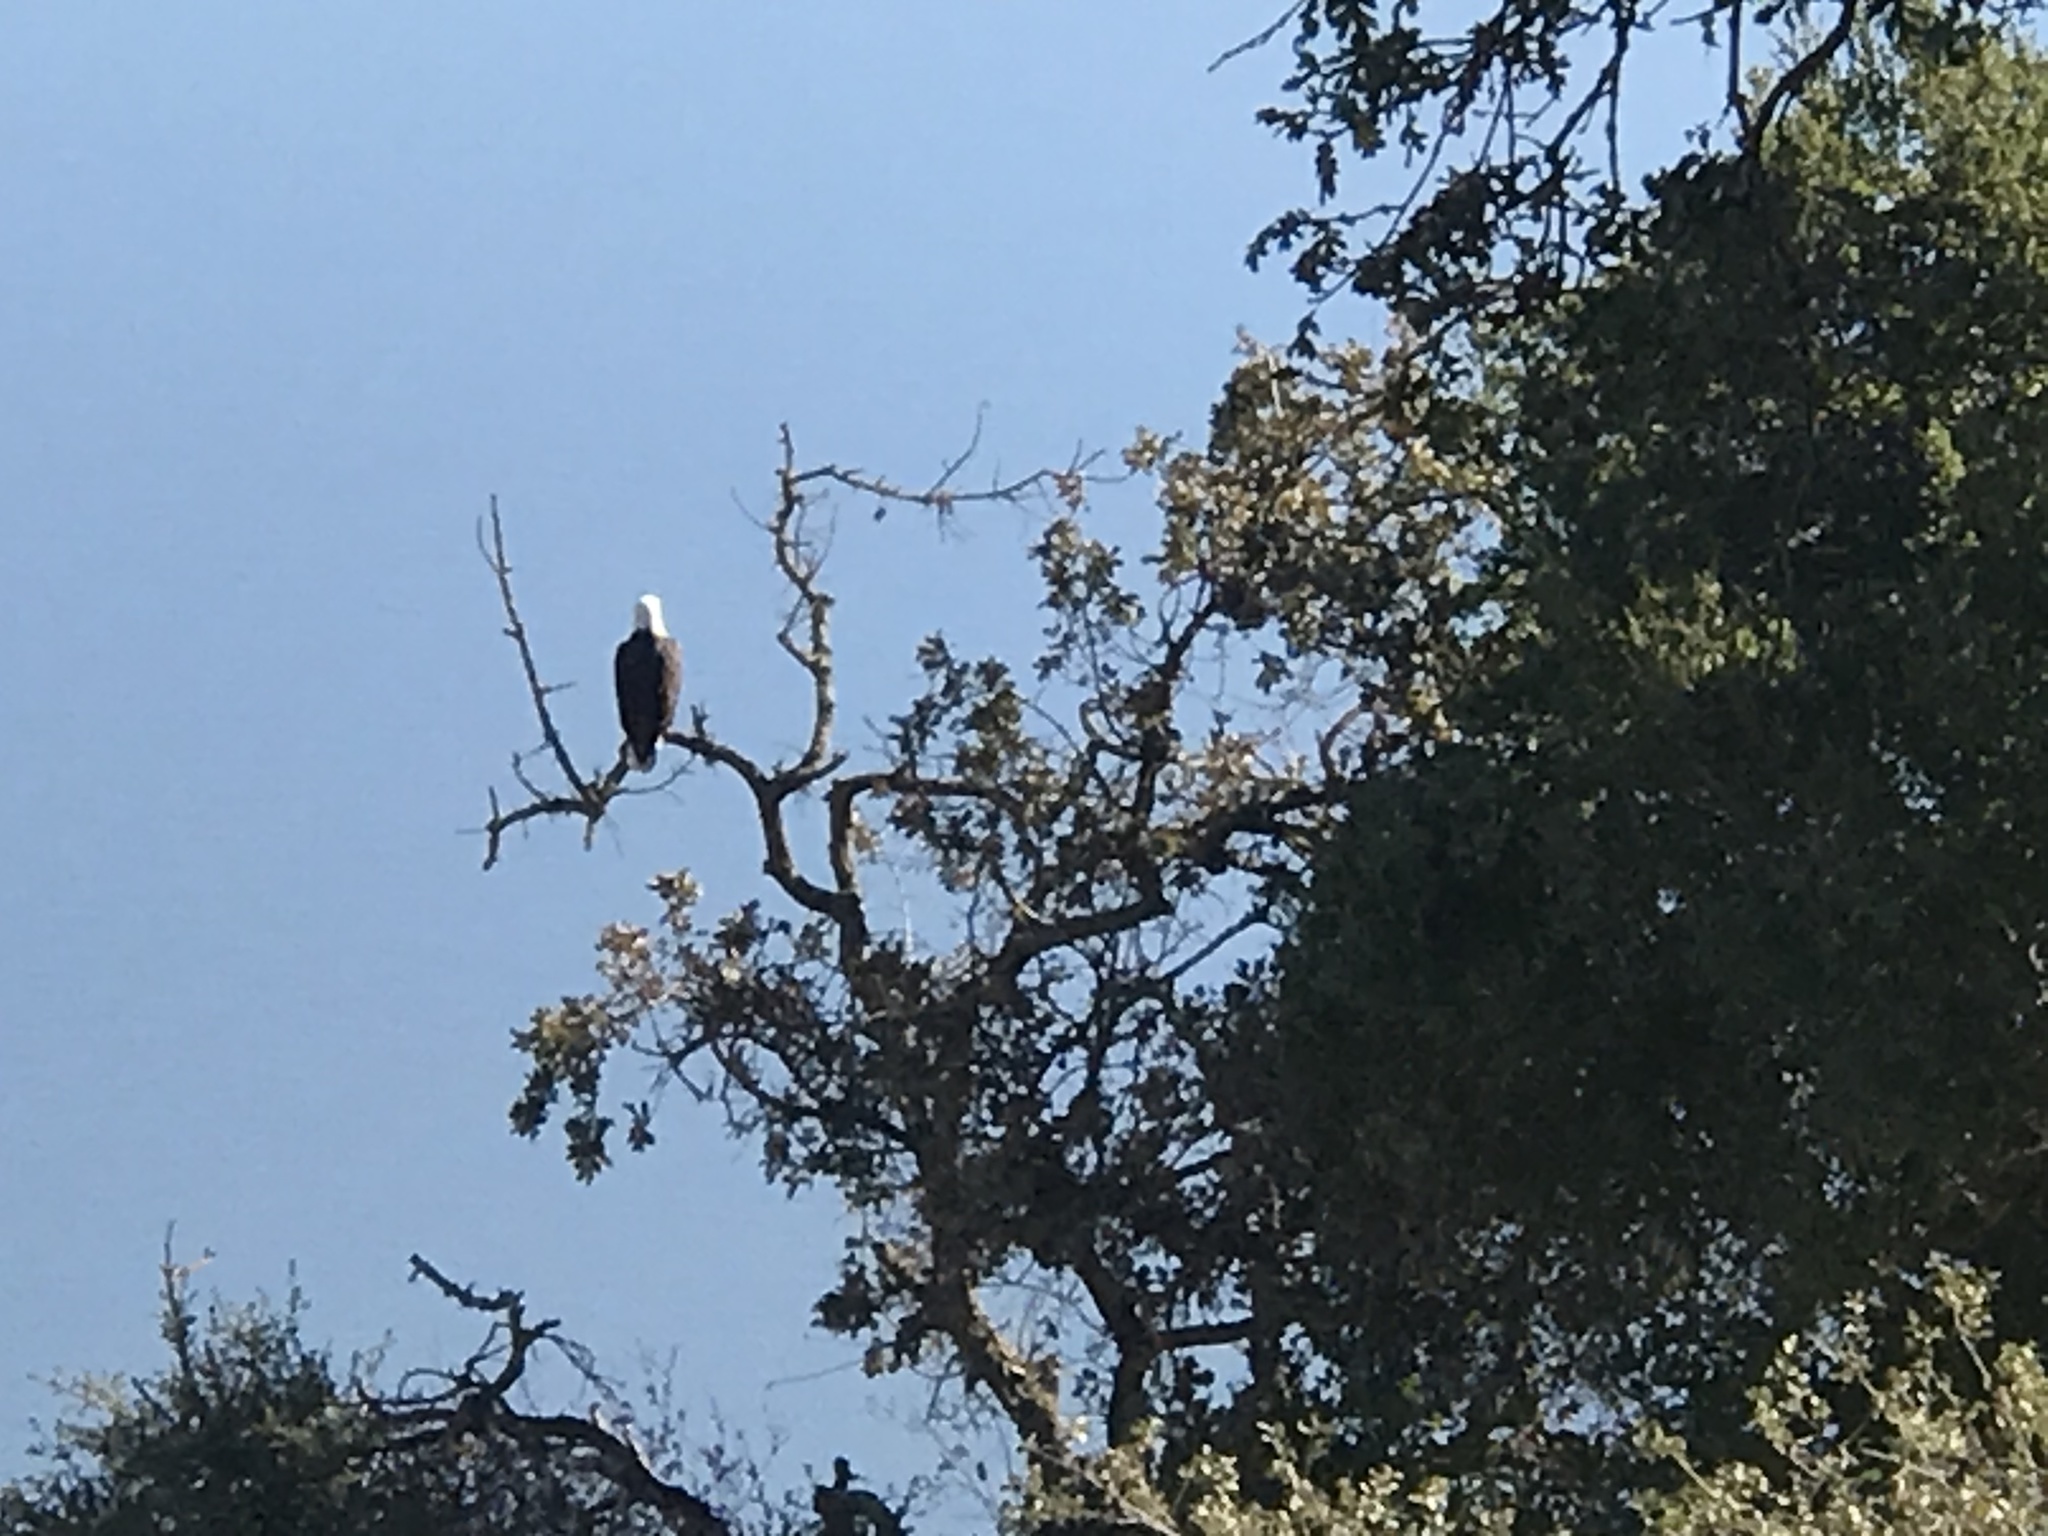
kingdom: Animalia
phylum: Chordata
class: Aves
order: Accipitriformes
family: Accipitridae
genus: Haliaeetus
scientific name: Haliaeetus leucocephalus
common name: Bald eagle
